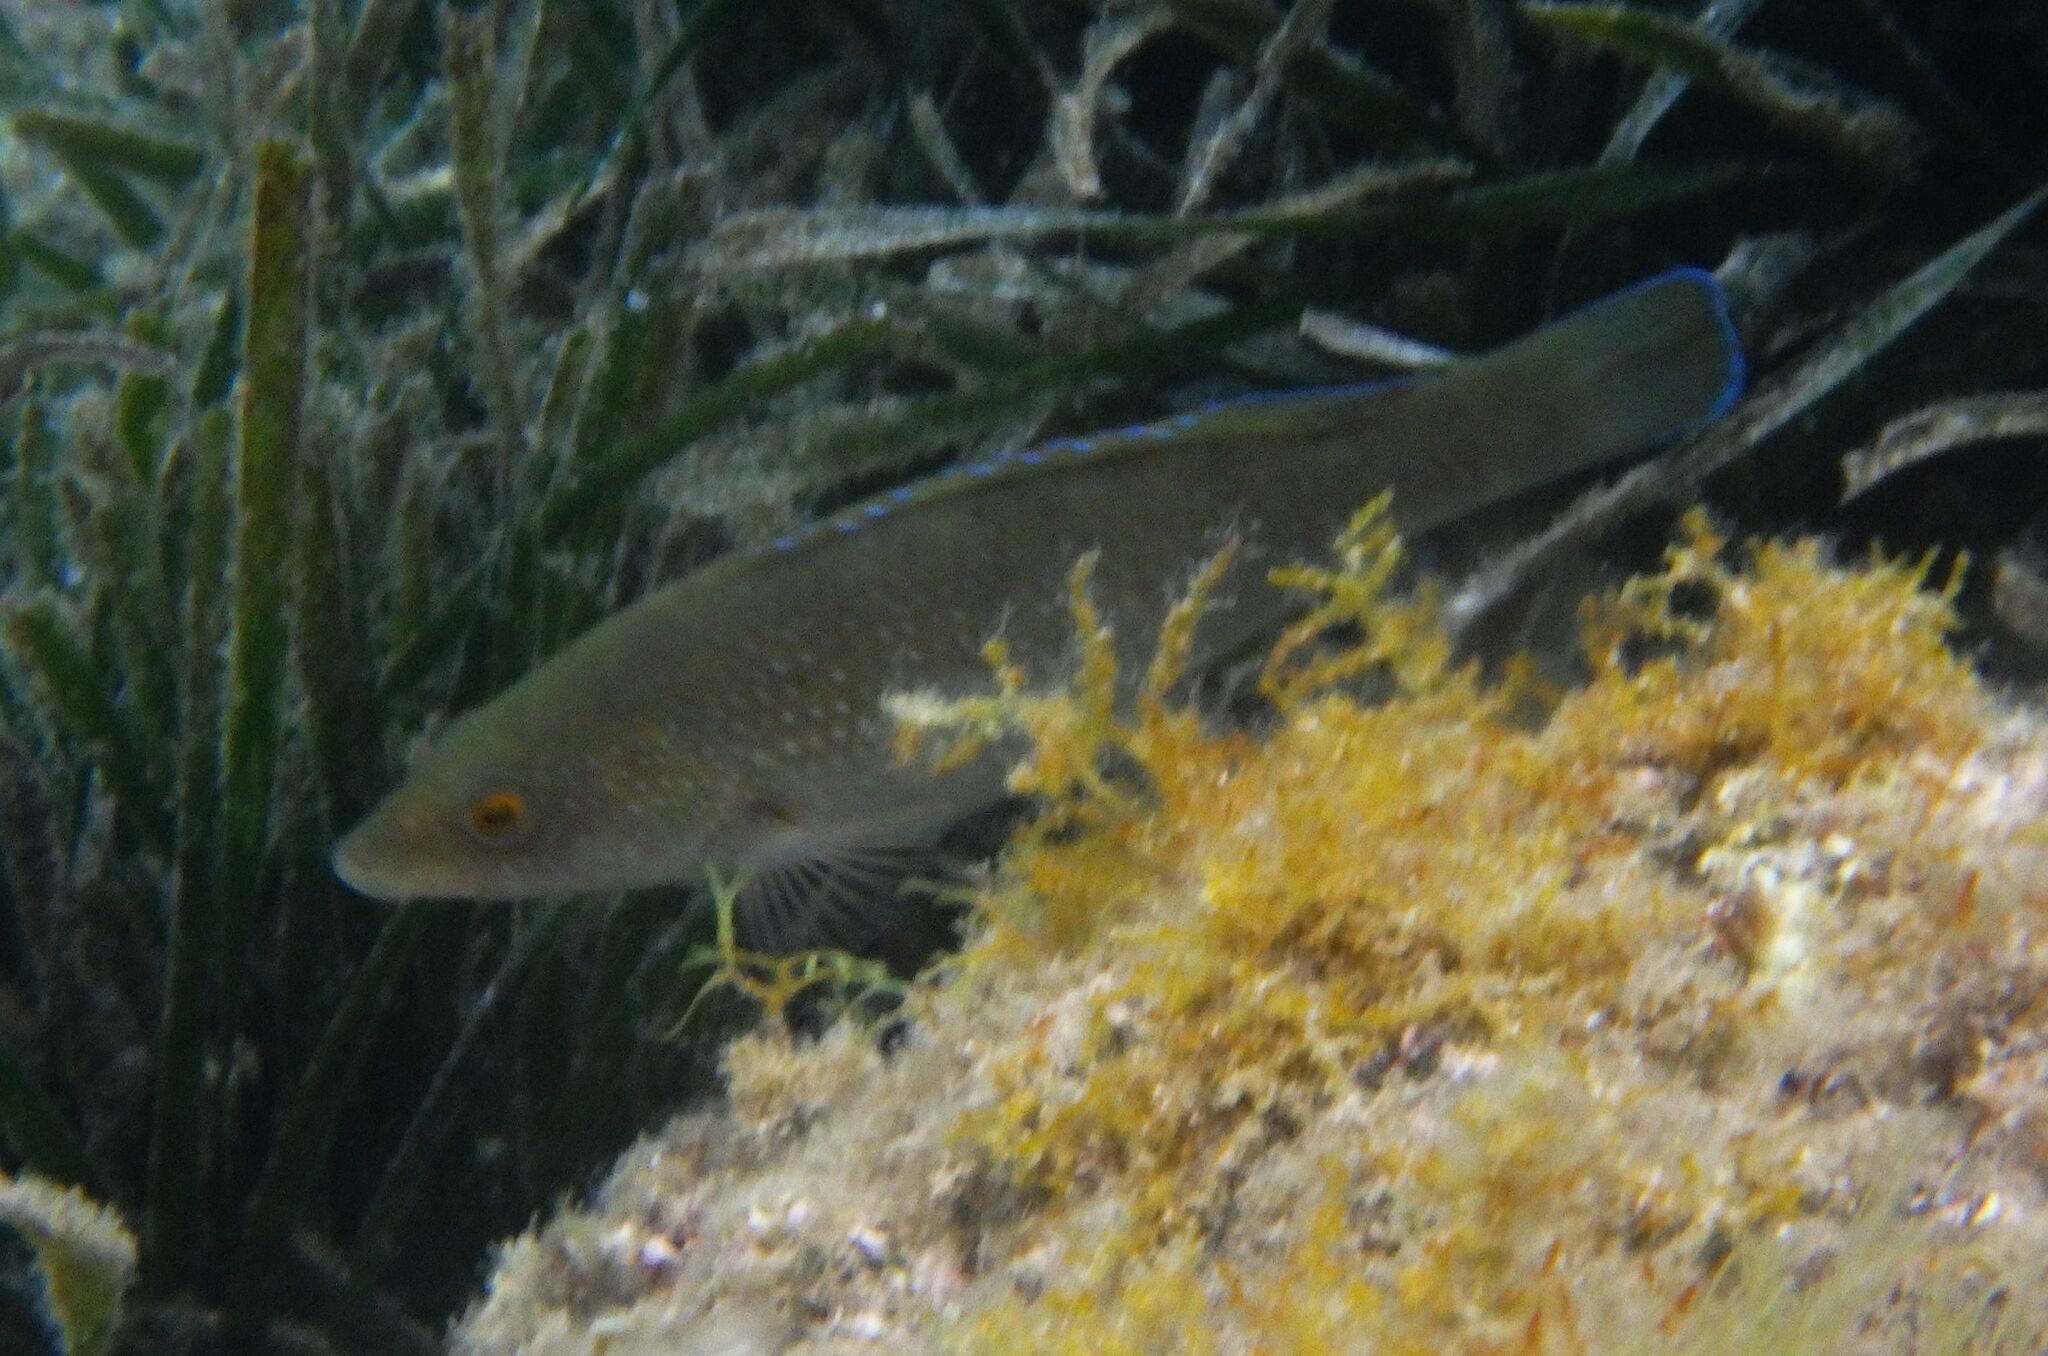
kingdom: Animalia
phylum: Chordata
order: Perciformes
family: Labridae
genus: Labrus
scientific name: Labrus merula
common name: Brown wrasse
